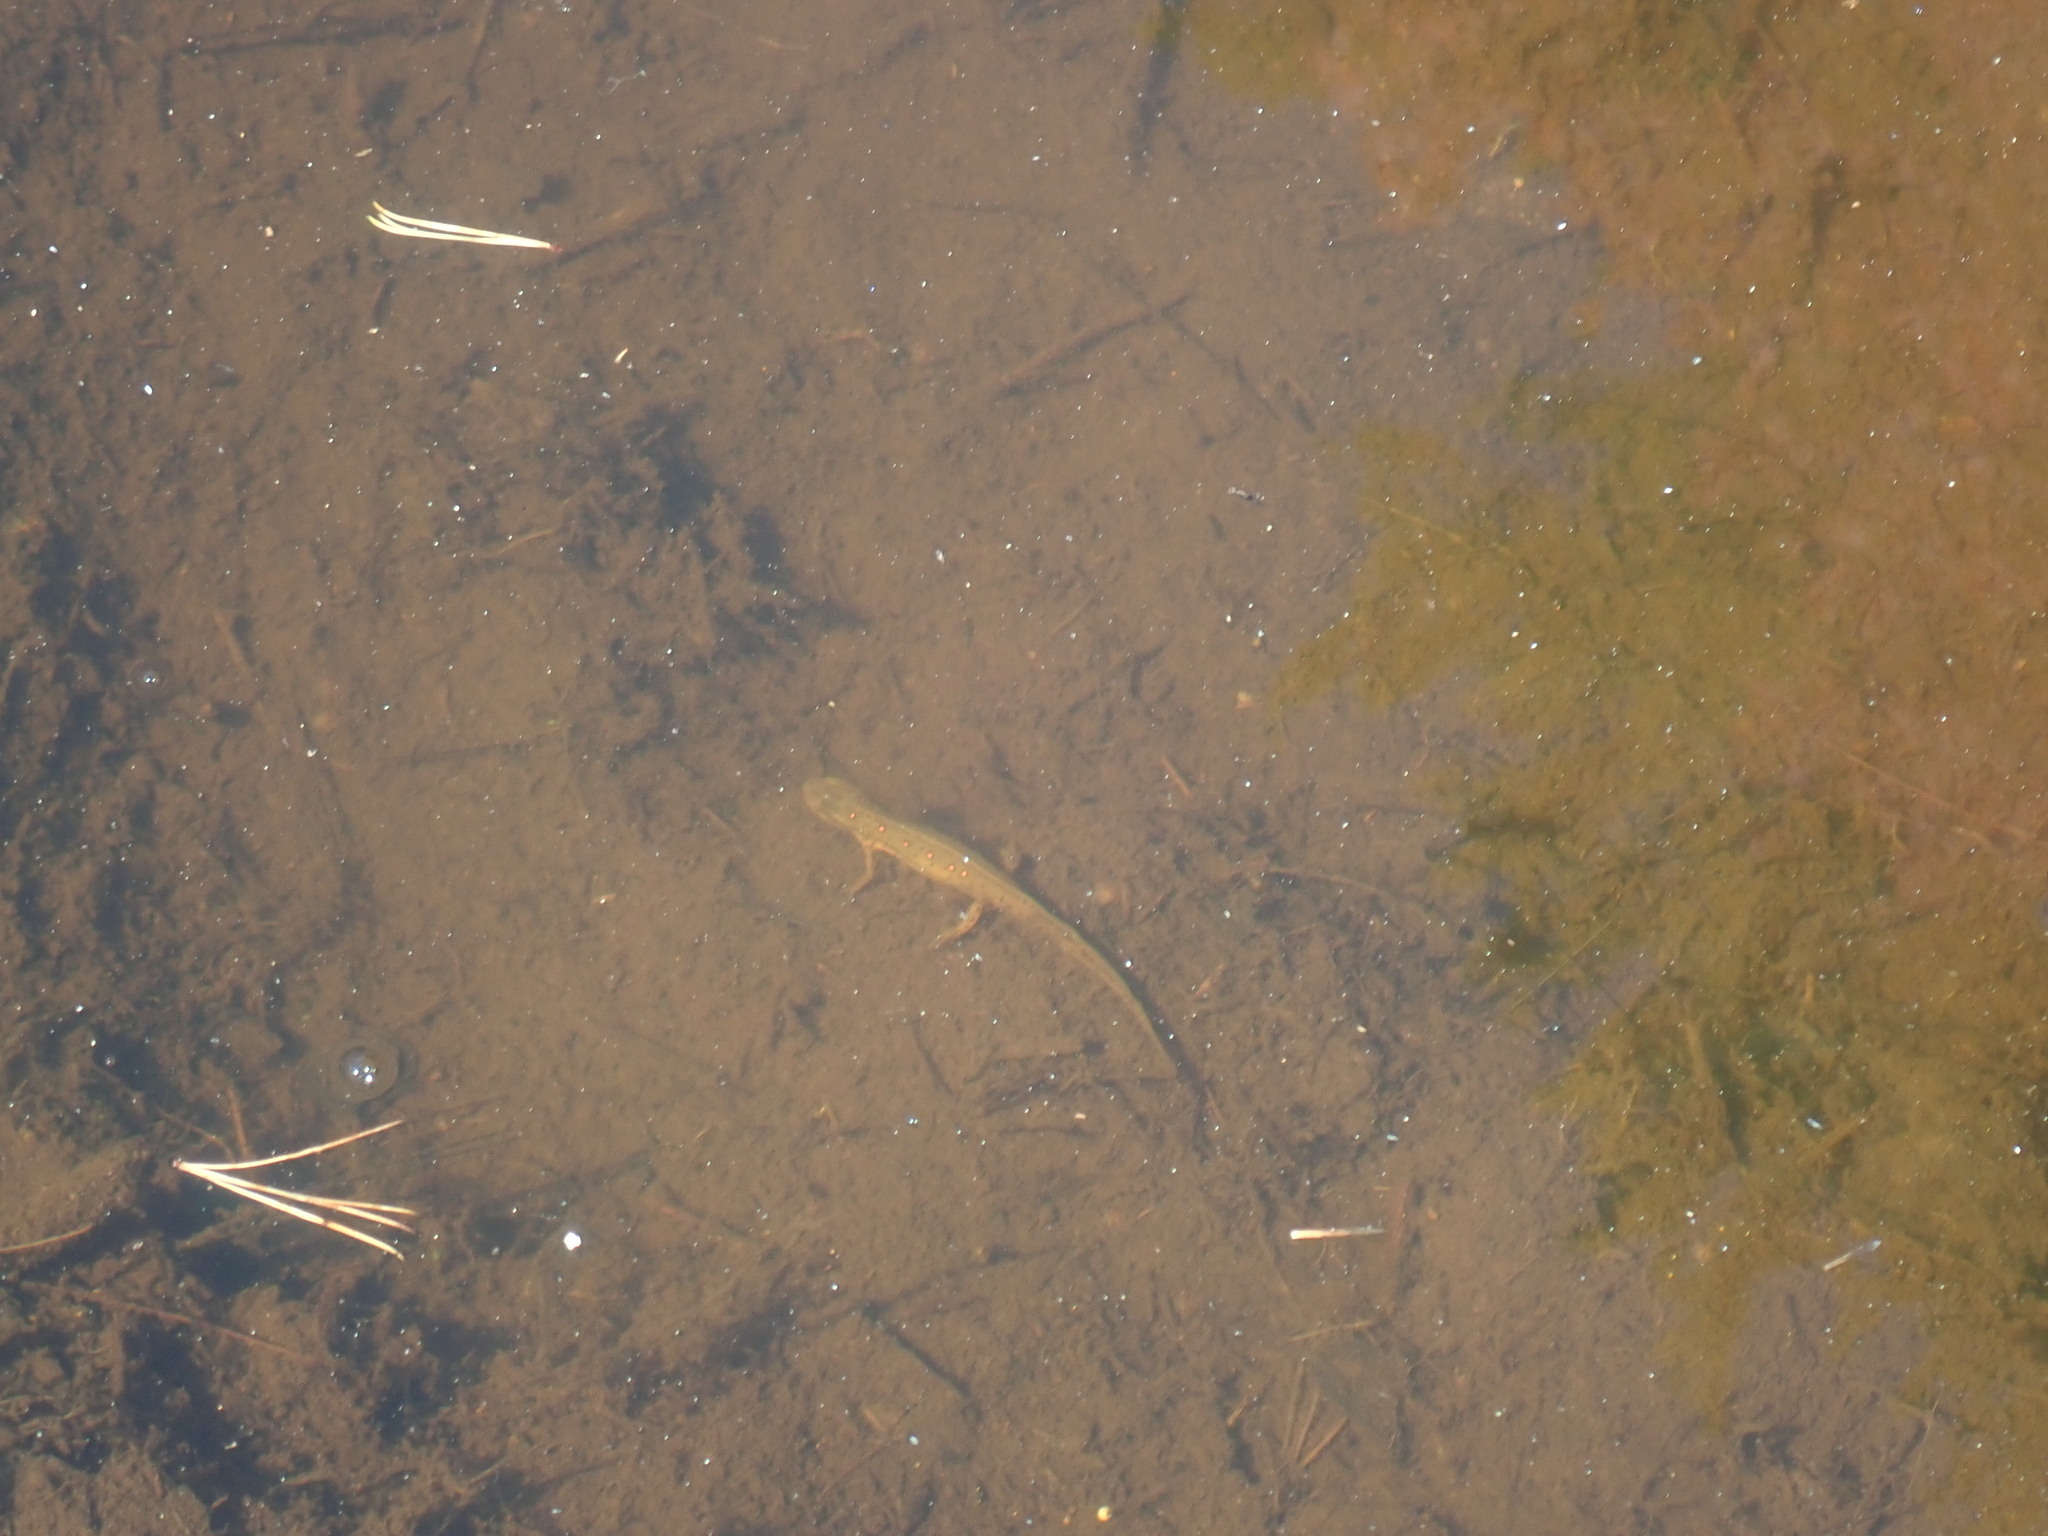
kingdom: Animalia
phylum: Chordata
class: Amphibia
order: Caudata
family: Salamandridae
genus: Notophthalmus
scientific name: Notophthalmus viridescens
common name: Eastern newt
